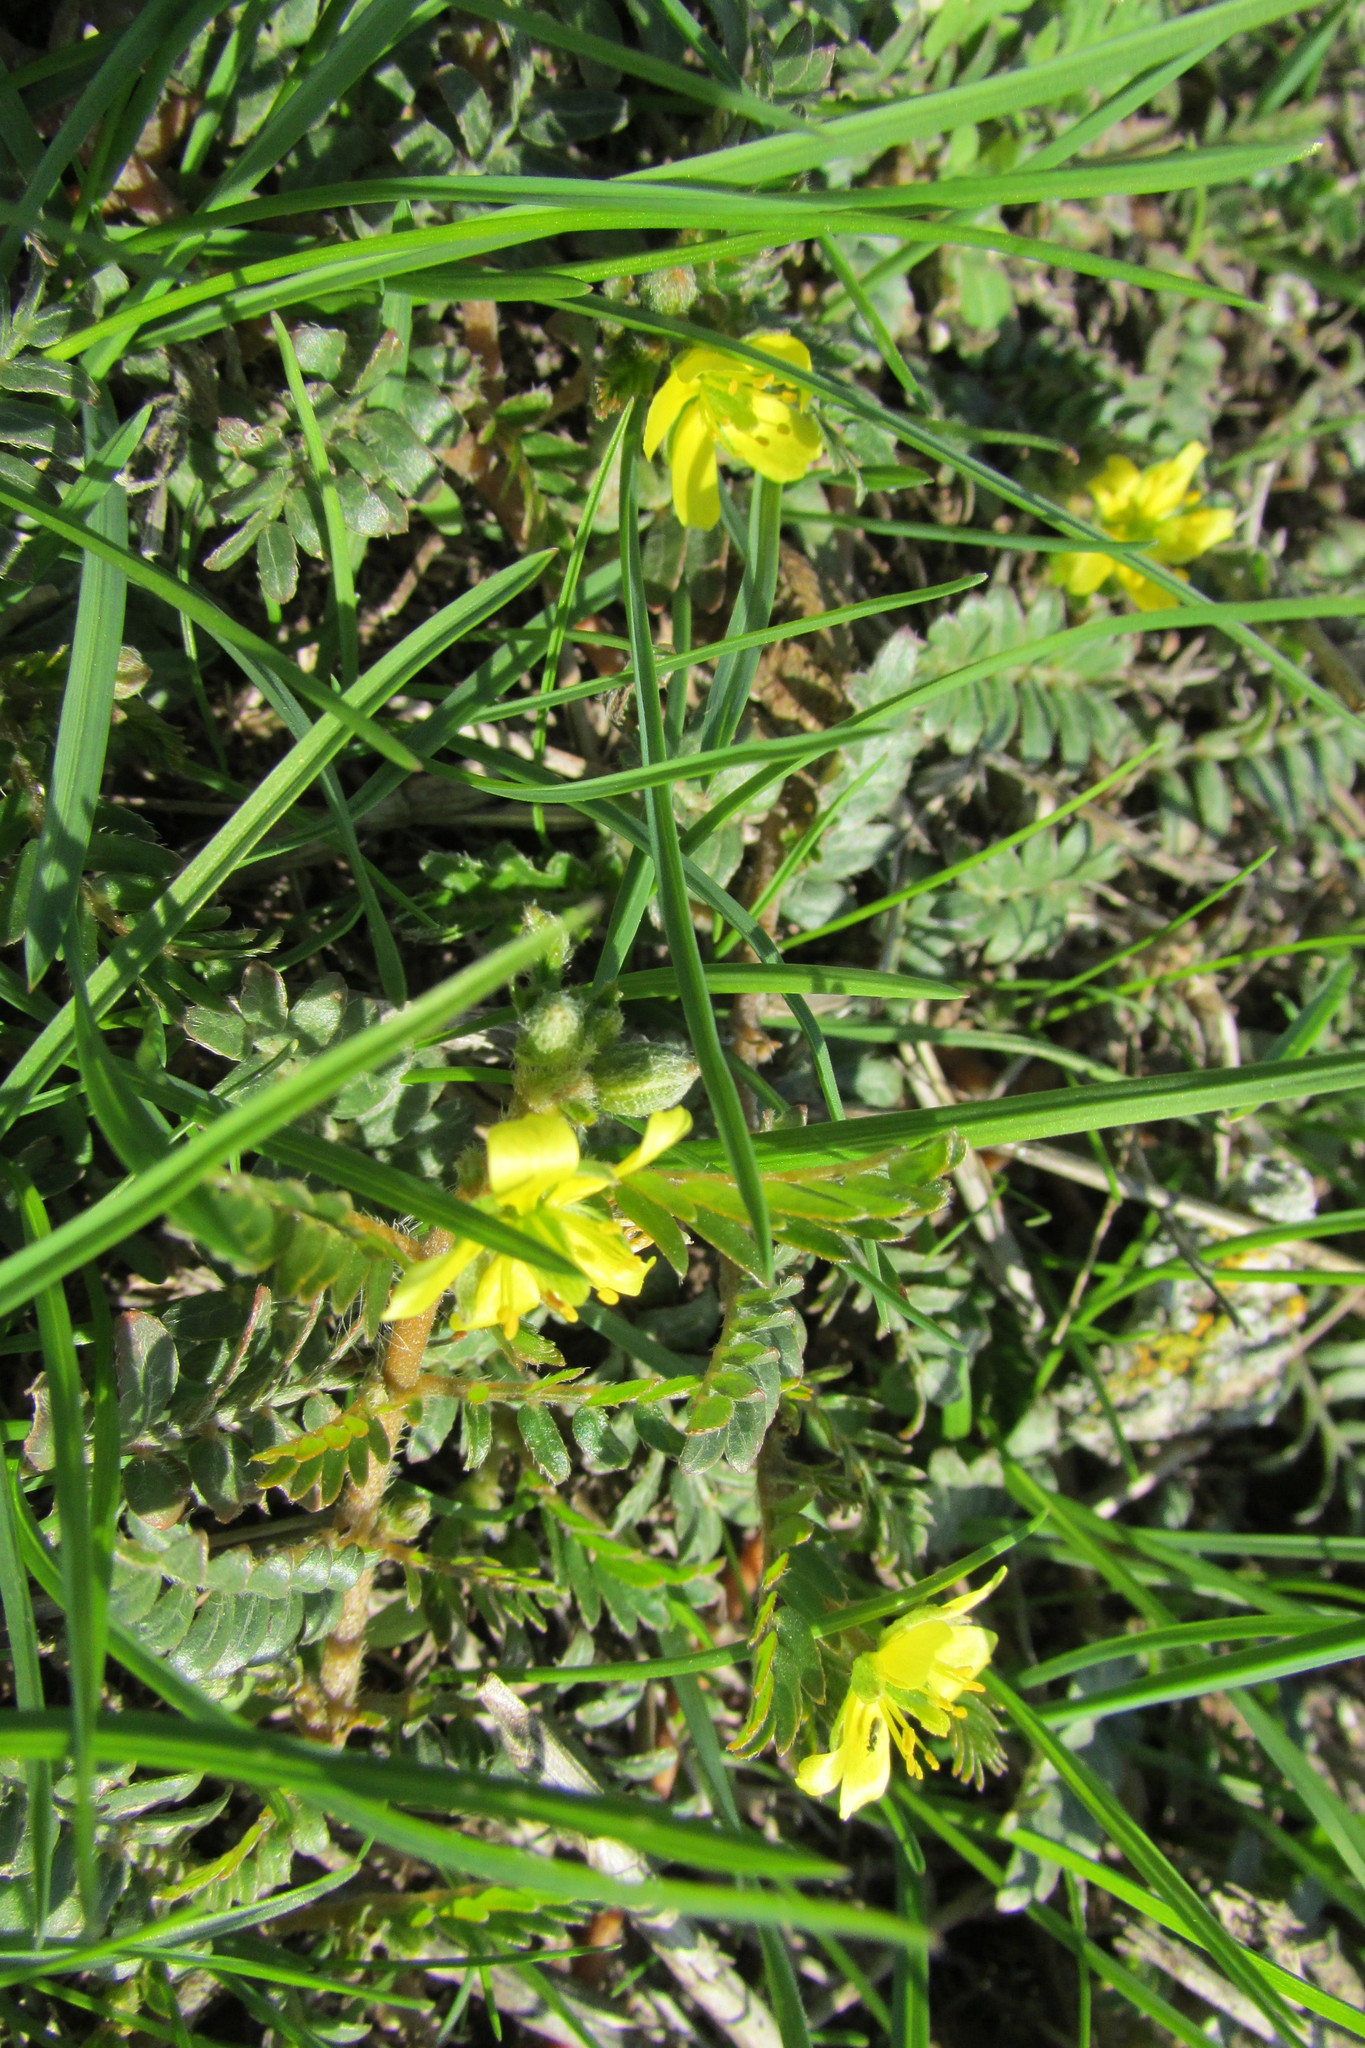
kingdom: Plantae
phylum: Tracheophyta
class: Magnoliopsida
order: Zygophyllales
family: Zygophyllaceae
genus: Tribulus
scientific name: Tribulus terrestris
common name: Puncturevine
